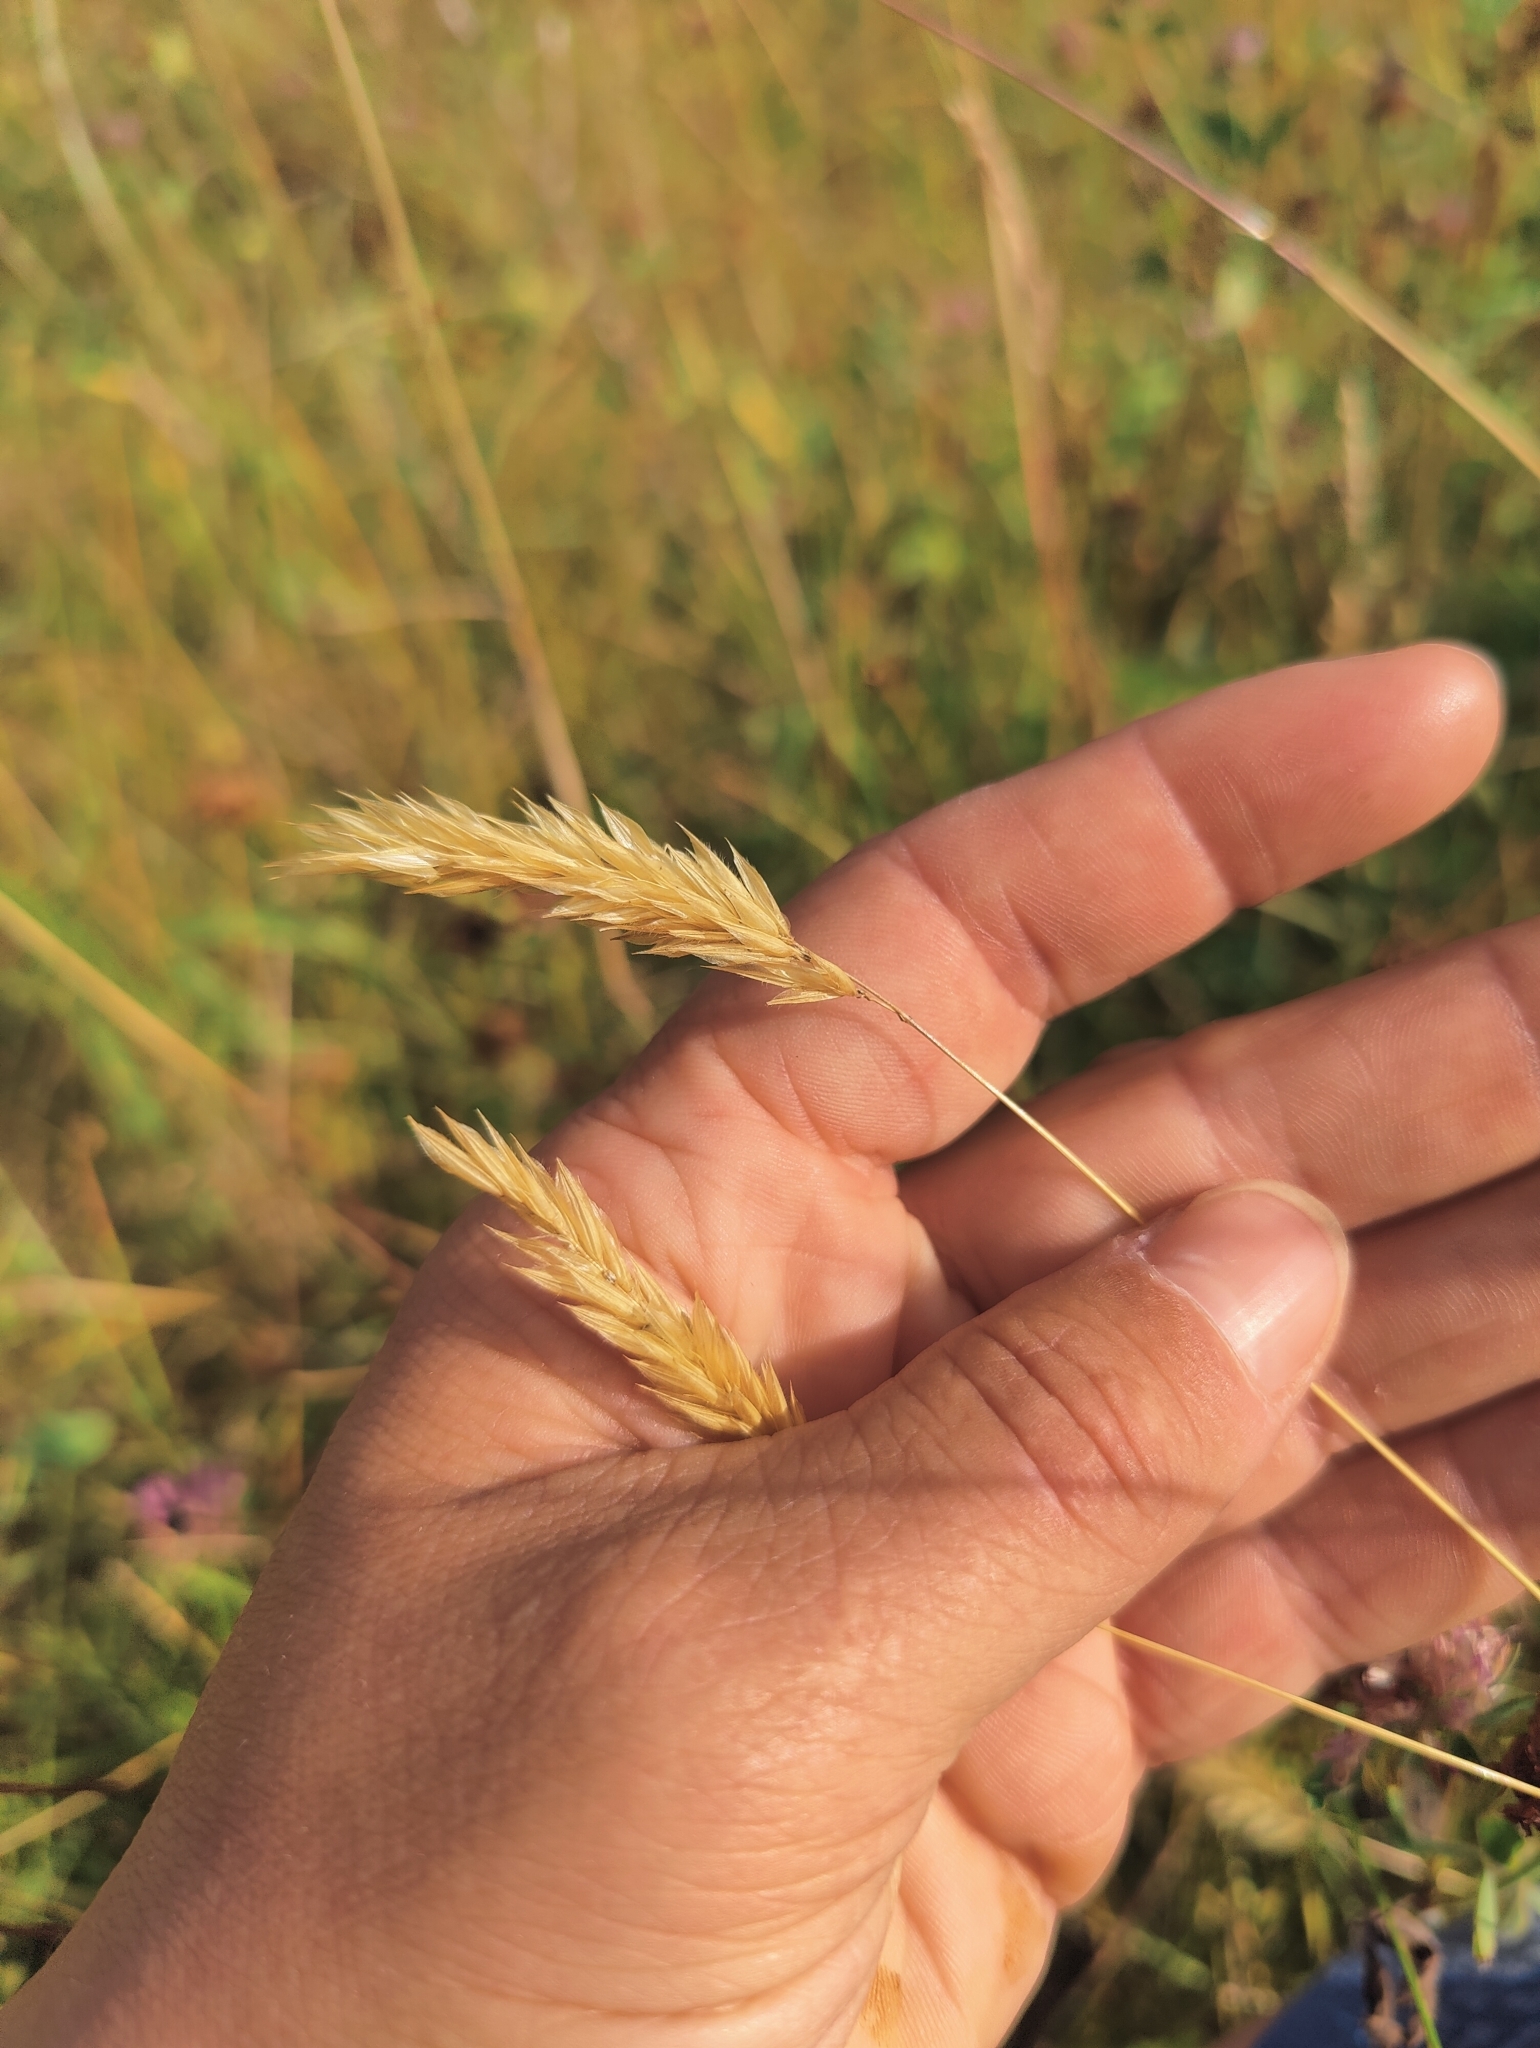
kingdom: Plantae
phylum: Tracheophyta
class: Liliopsida
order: Poales
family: Poaceae
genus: Anthoxanthum
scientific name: Anthoxanthum odoratum
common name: Sweet vernalgrass
